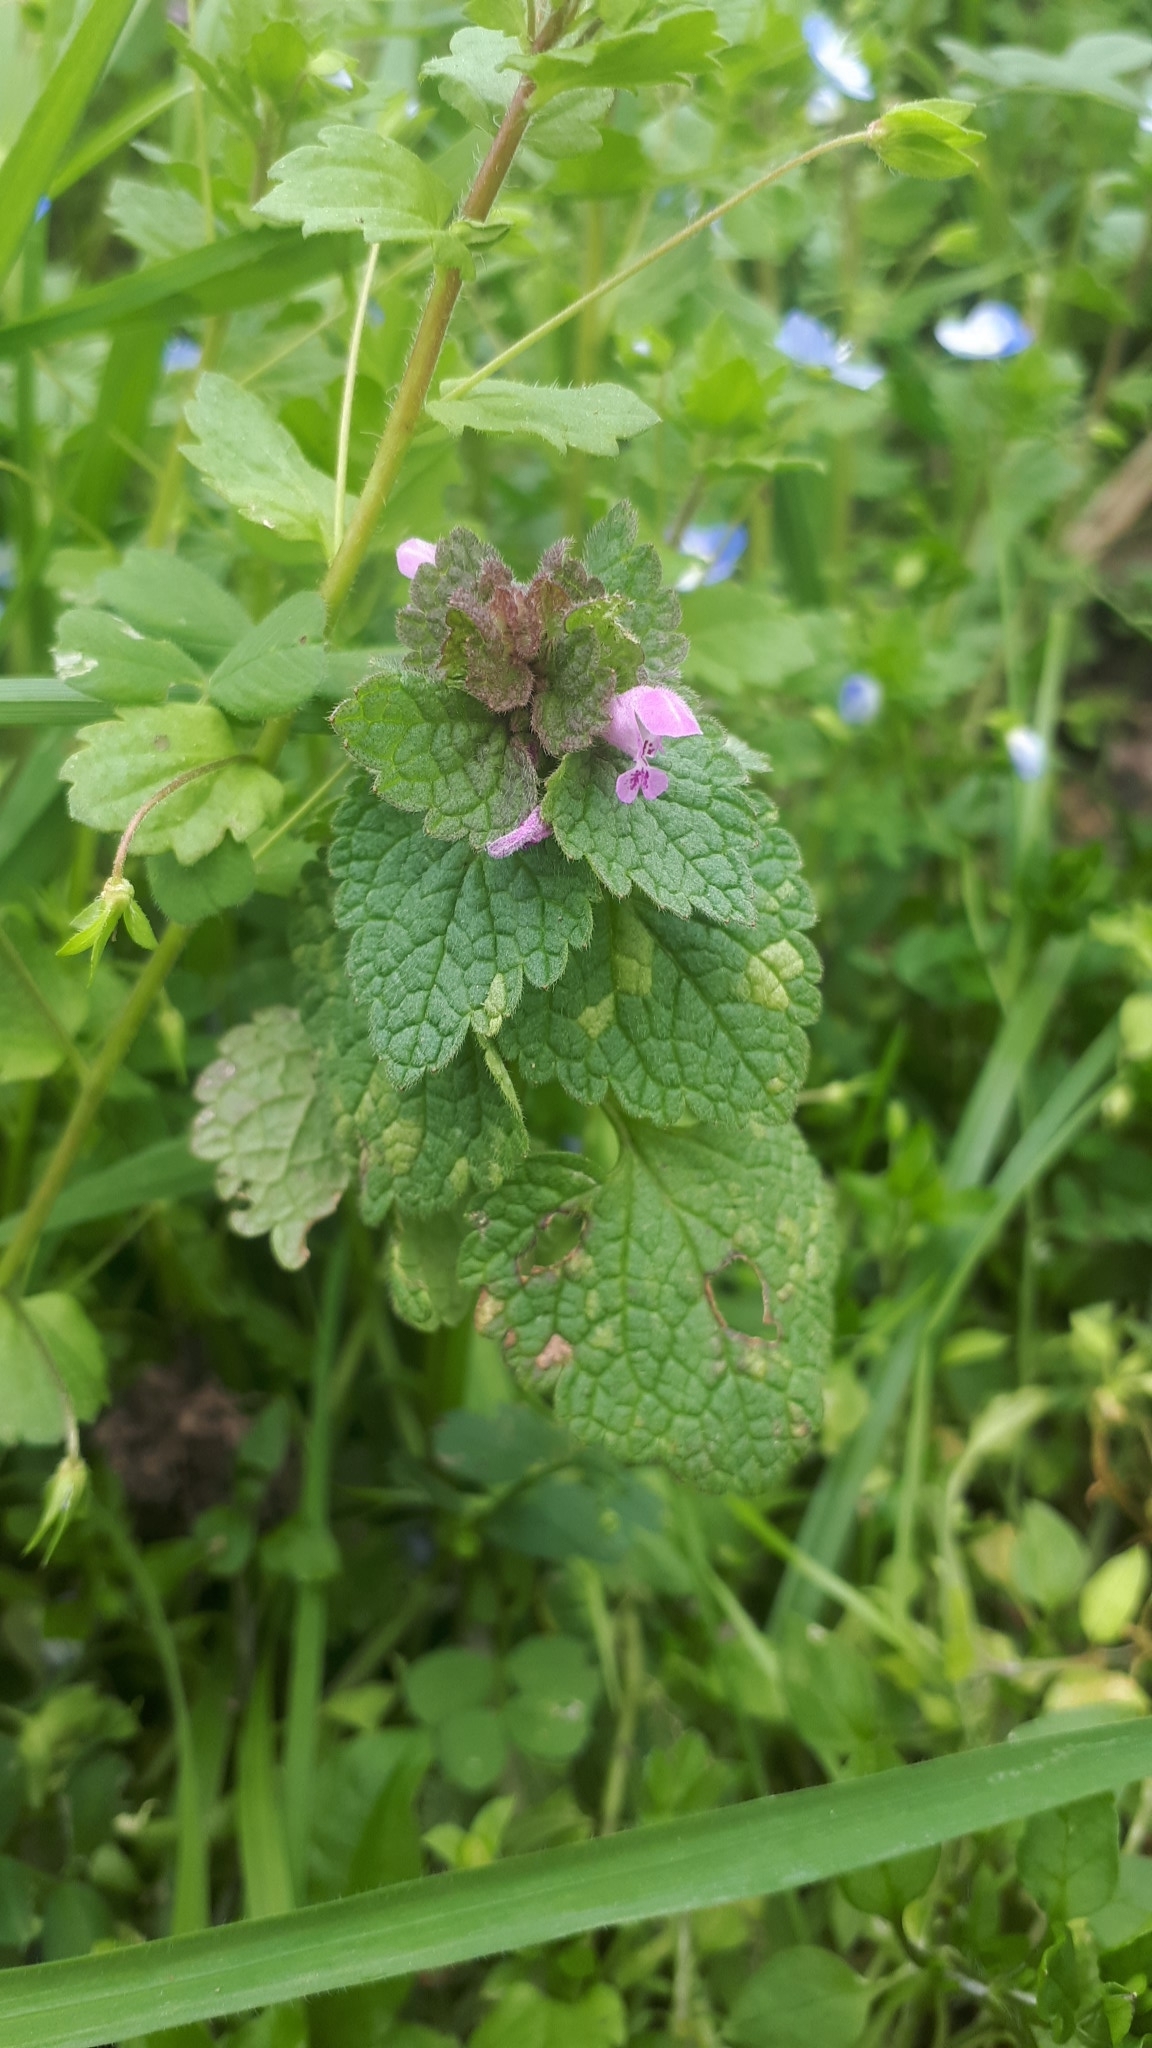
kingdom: Plantae
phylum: Tracheophyta
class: Magnoliopsida
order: Lamiales
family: Lamiaceae
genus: Lamium
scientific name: Lamium purpureum
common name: Red dead-nettle
